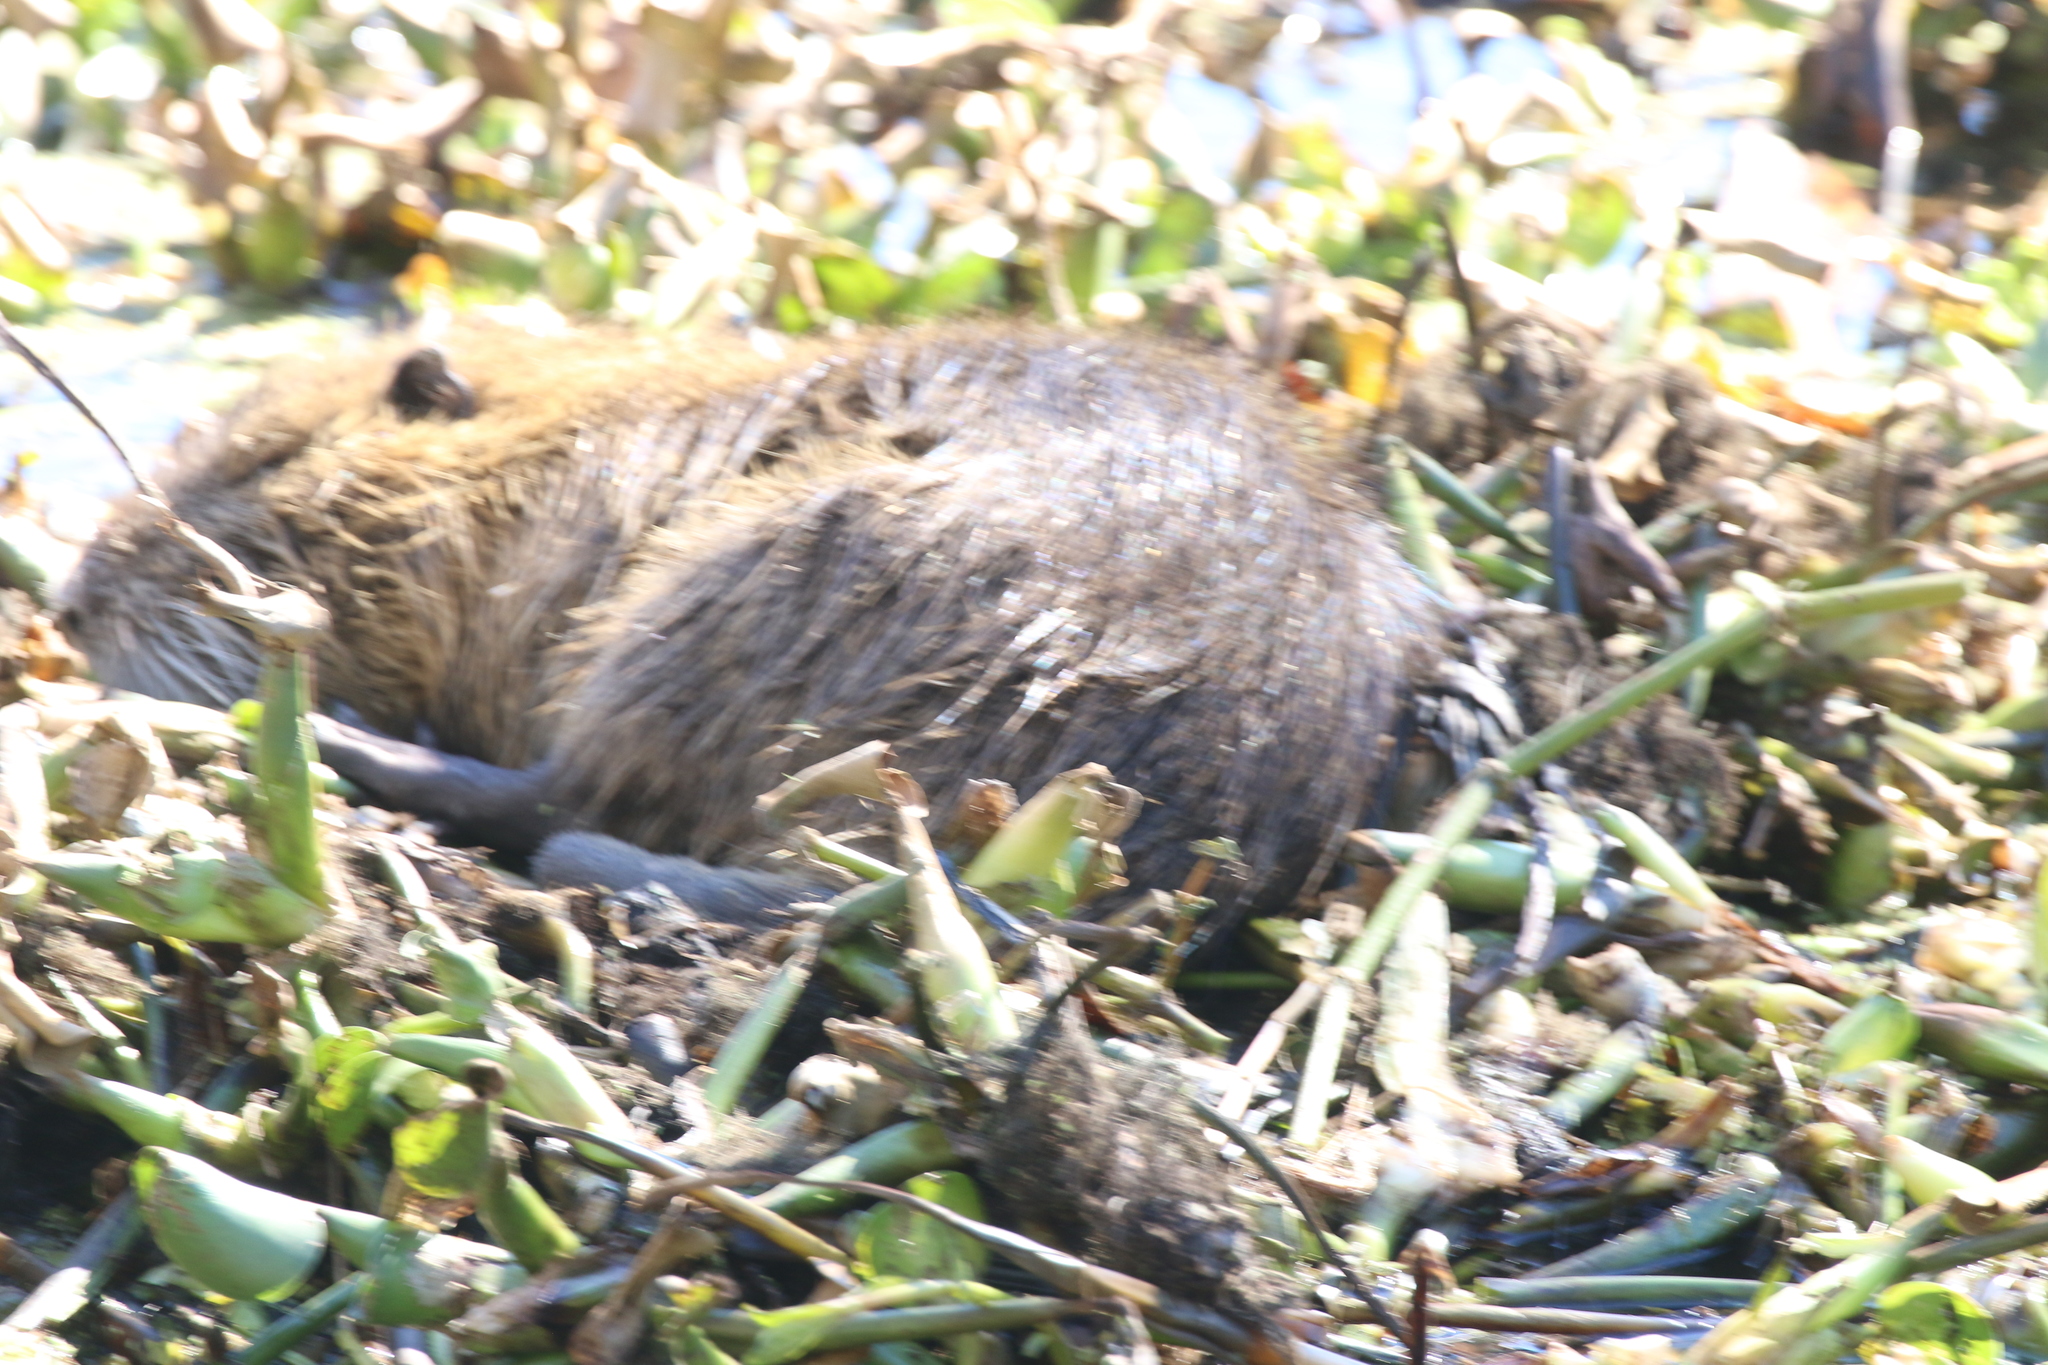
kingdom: Animalia
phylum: Chordata
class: Mammalia
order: Rodentia
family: Myocastoridae
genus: Myocastor
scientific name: Myocastor coypus
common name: Coypu
